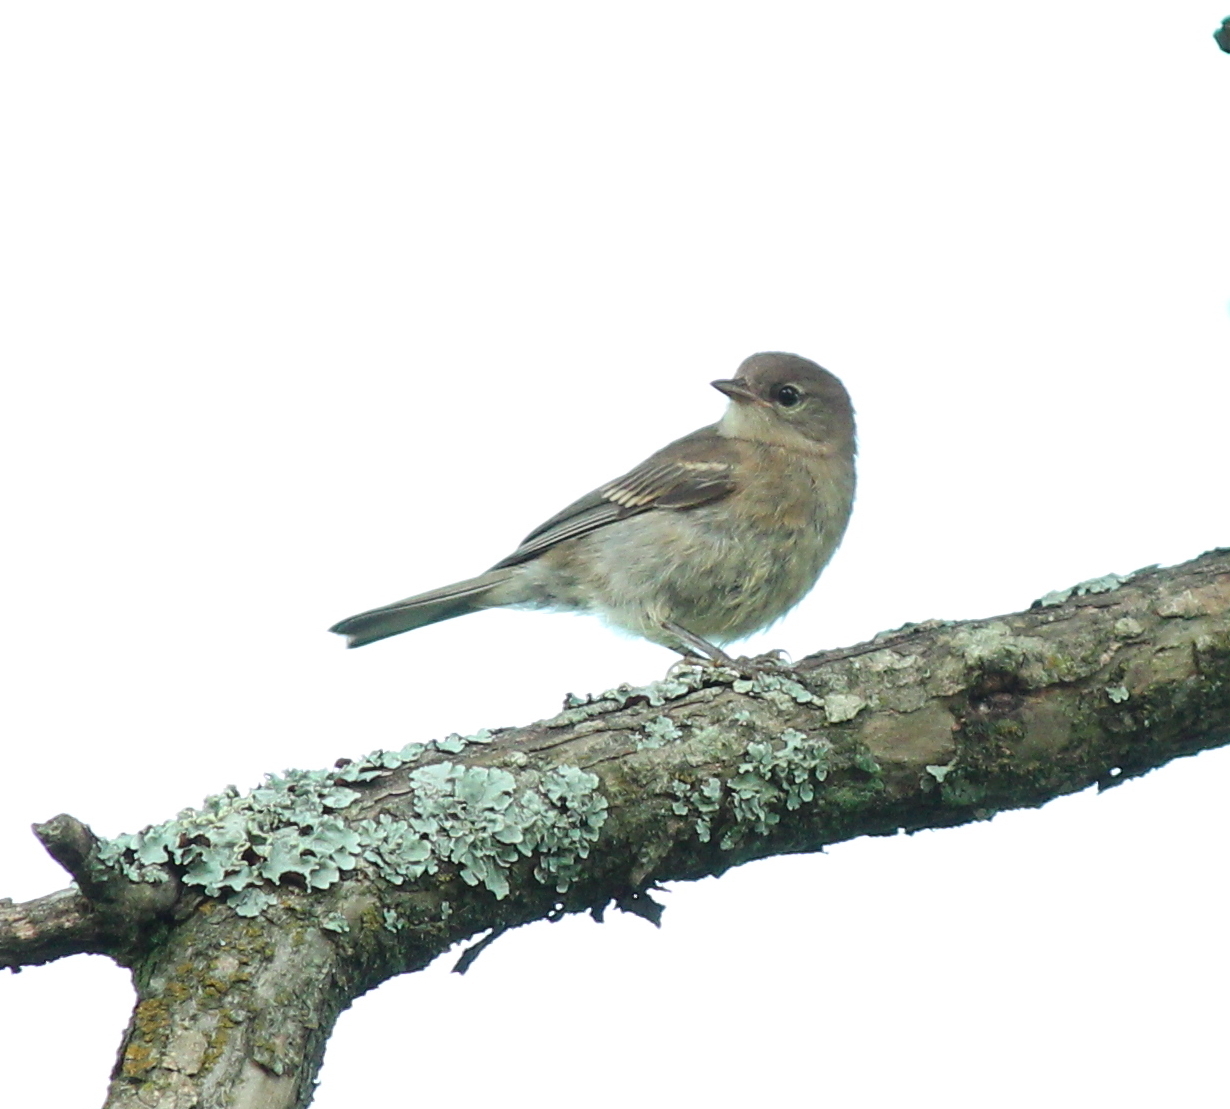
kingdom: Animalia
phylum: Chordata
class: Aves
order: Passeriformes
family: Parulidae
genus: Setophaga
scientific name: Setophaga pinus
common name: Pine warbler
